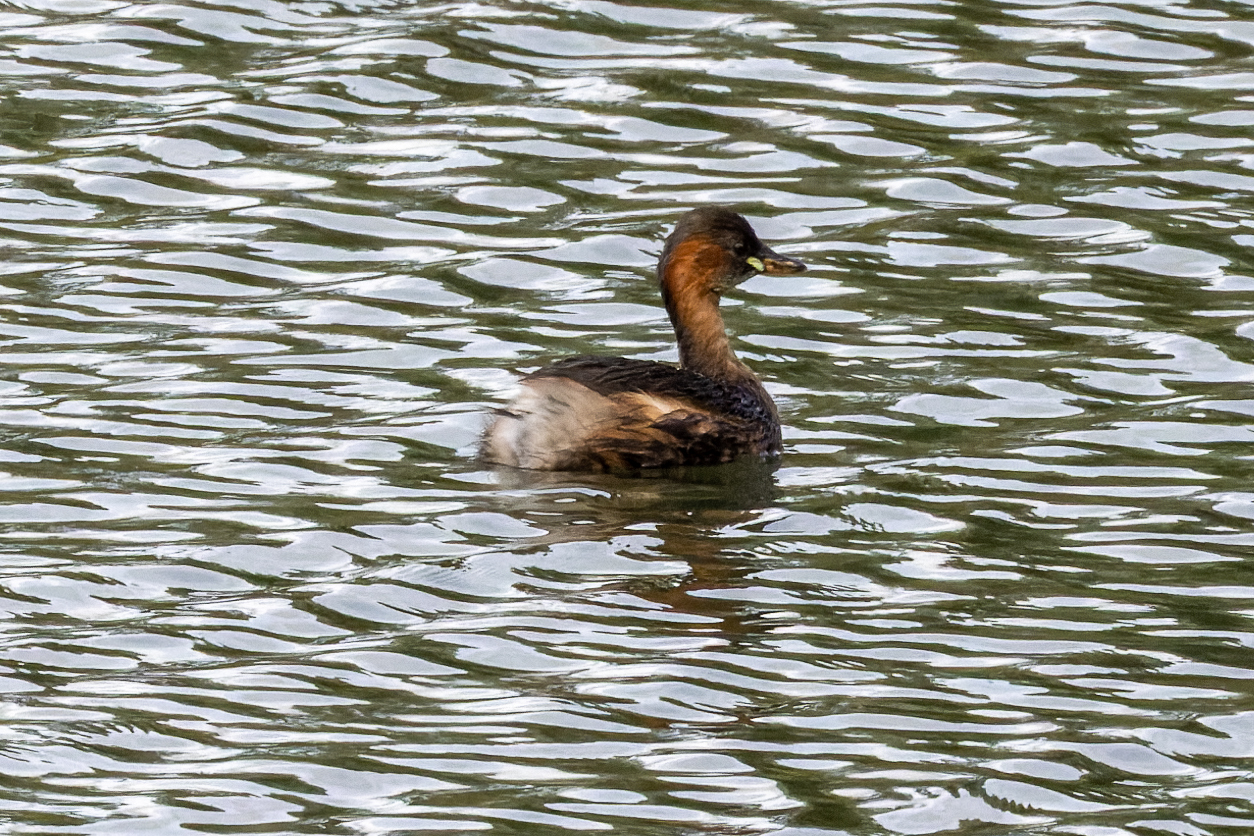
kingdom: Animalia
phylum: Chordata
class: Aves
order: Podicipediformes
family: Podicipedidae
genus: Tachybaptus
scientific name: Tachybaptus ruficollis
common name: Little grebe
